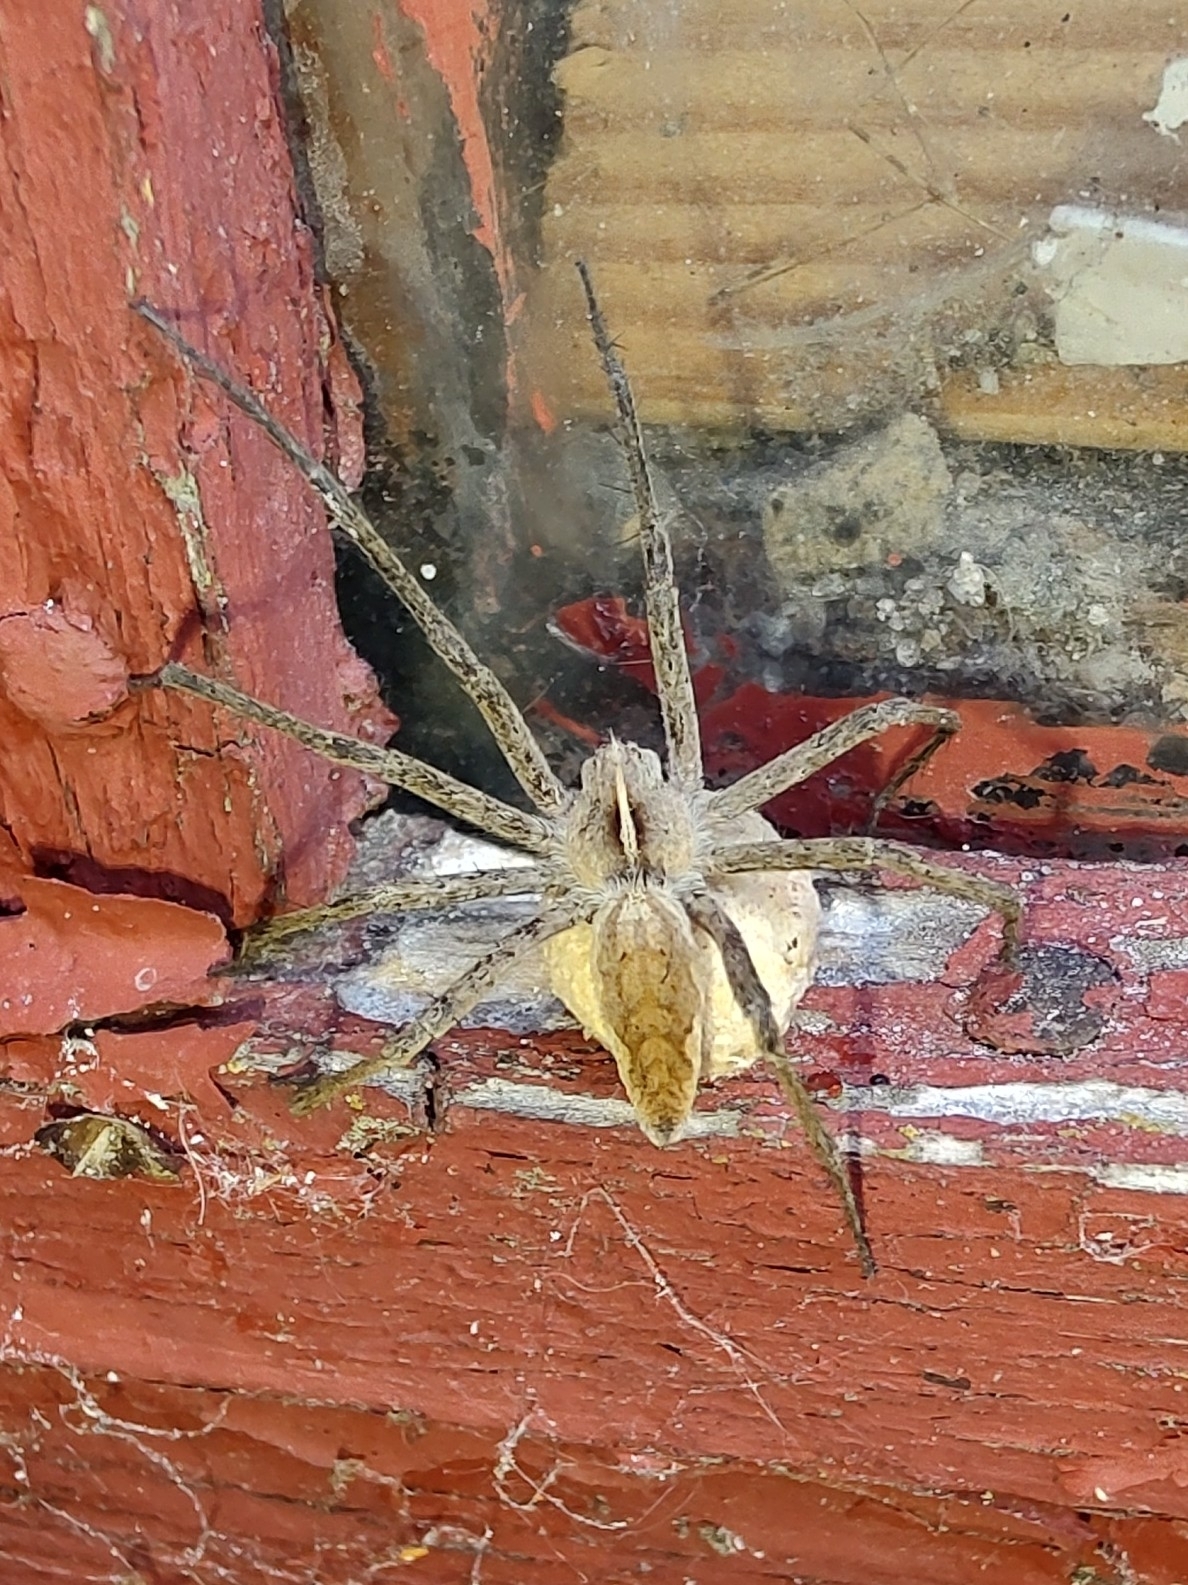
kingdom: Animalia
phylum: Arthropoda
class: Arachnida
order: Araneae
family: Pisauridae
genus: Pisaura
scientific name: Pisaura mirabilis
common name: Tent spider
